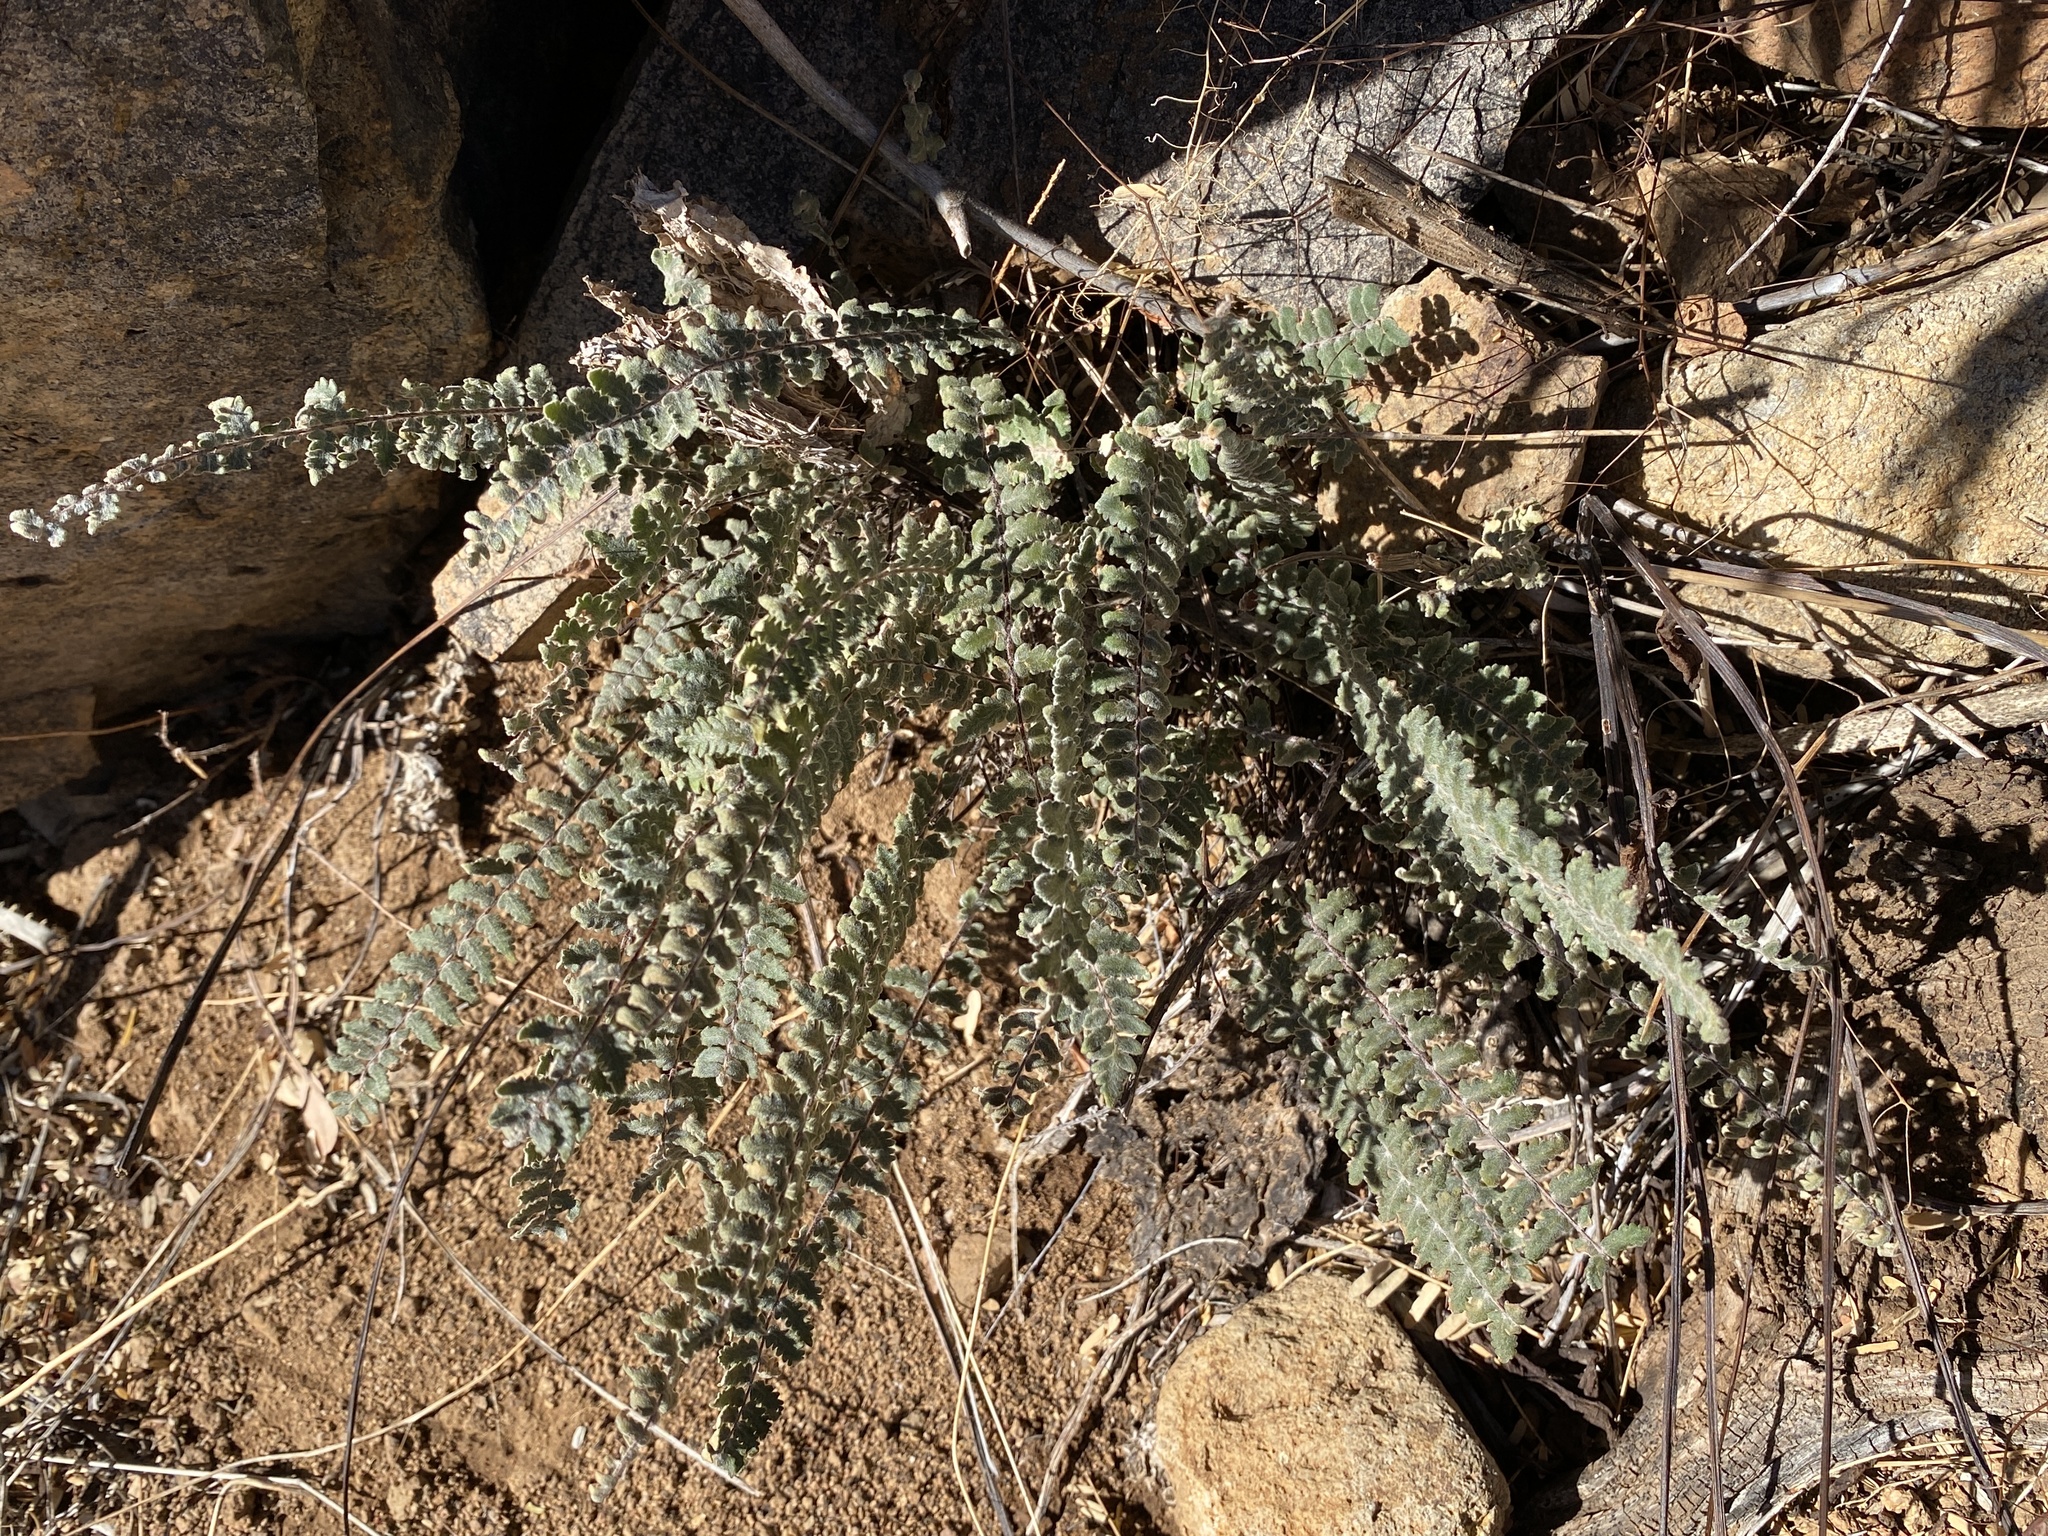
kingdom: Plantae
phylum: Tracheophyta
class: Polypodiopsida
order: Polypodiales
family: Pteridaceae
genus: Myriopteris
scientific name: Myriopteris aurea
